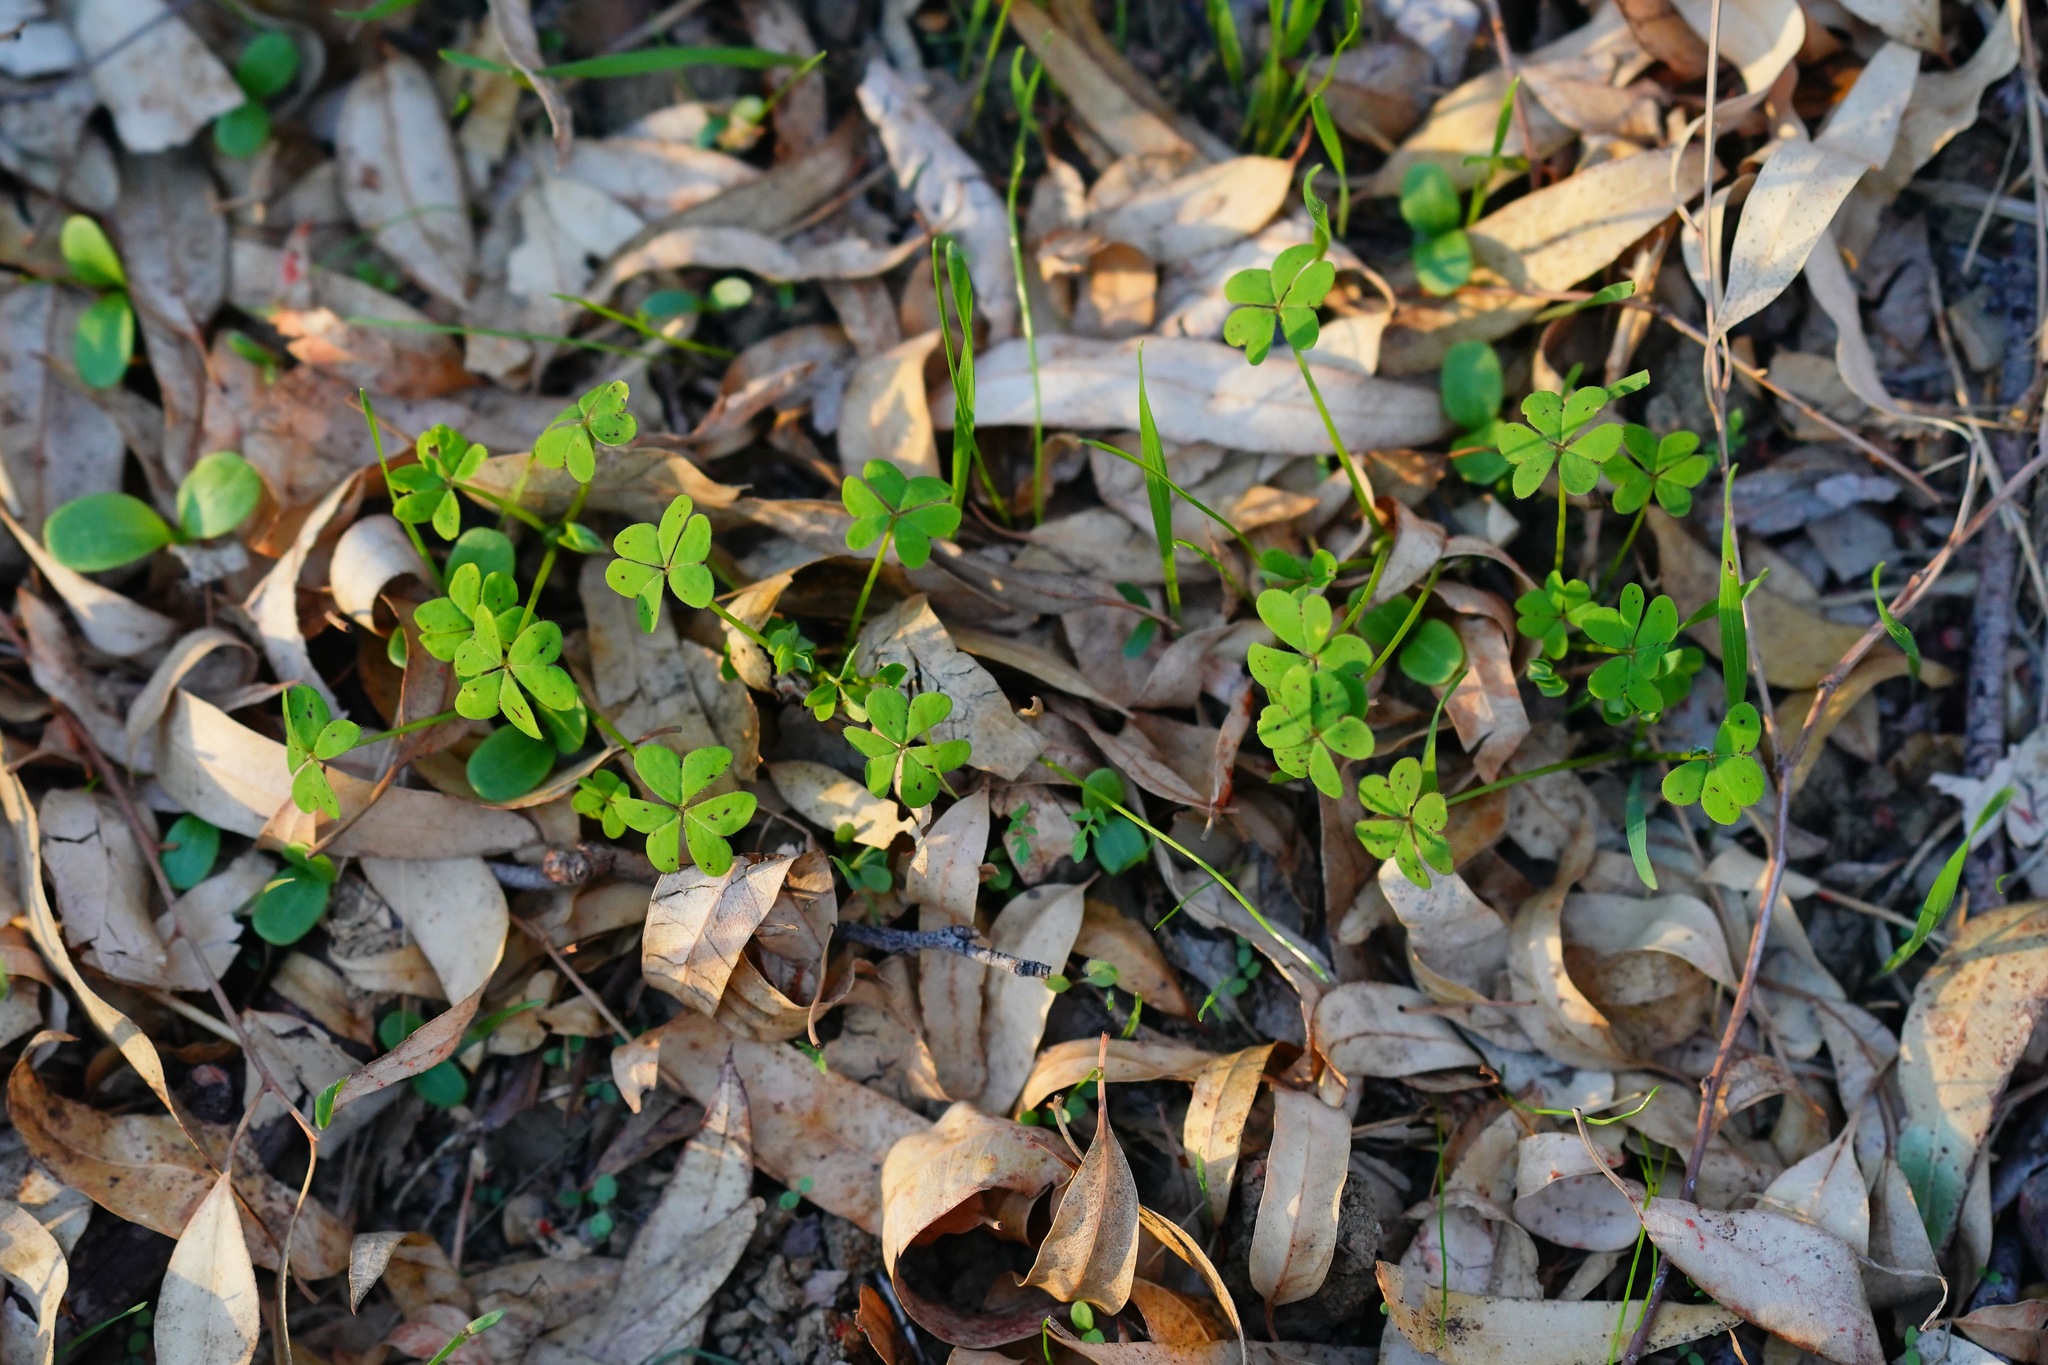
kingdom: Plantae
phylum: Tracheophyta
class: Magnoliopsida
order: Oxalidales
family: Oxalidaceae
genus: Oxalis
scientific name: Oxalis pes-caprae
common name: Bermuda-buttercup
